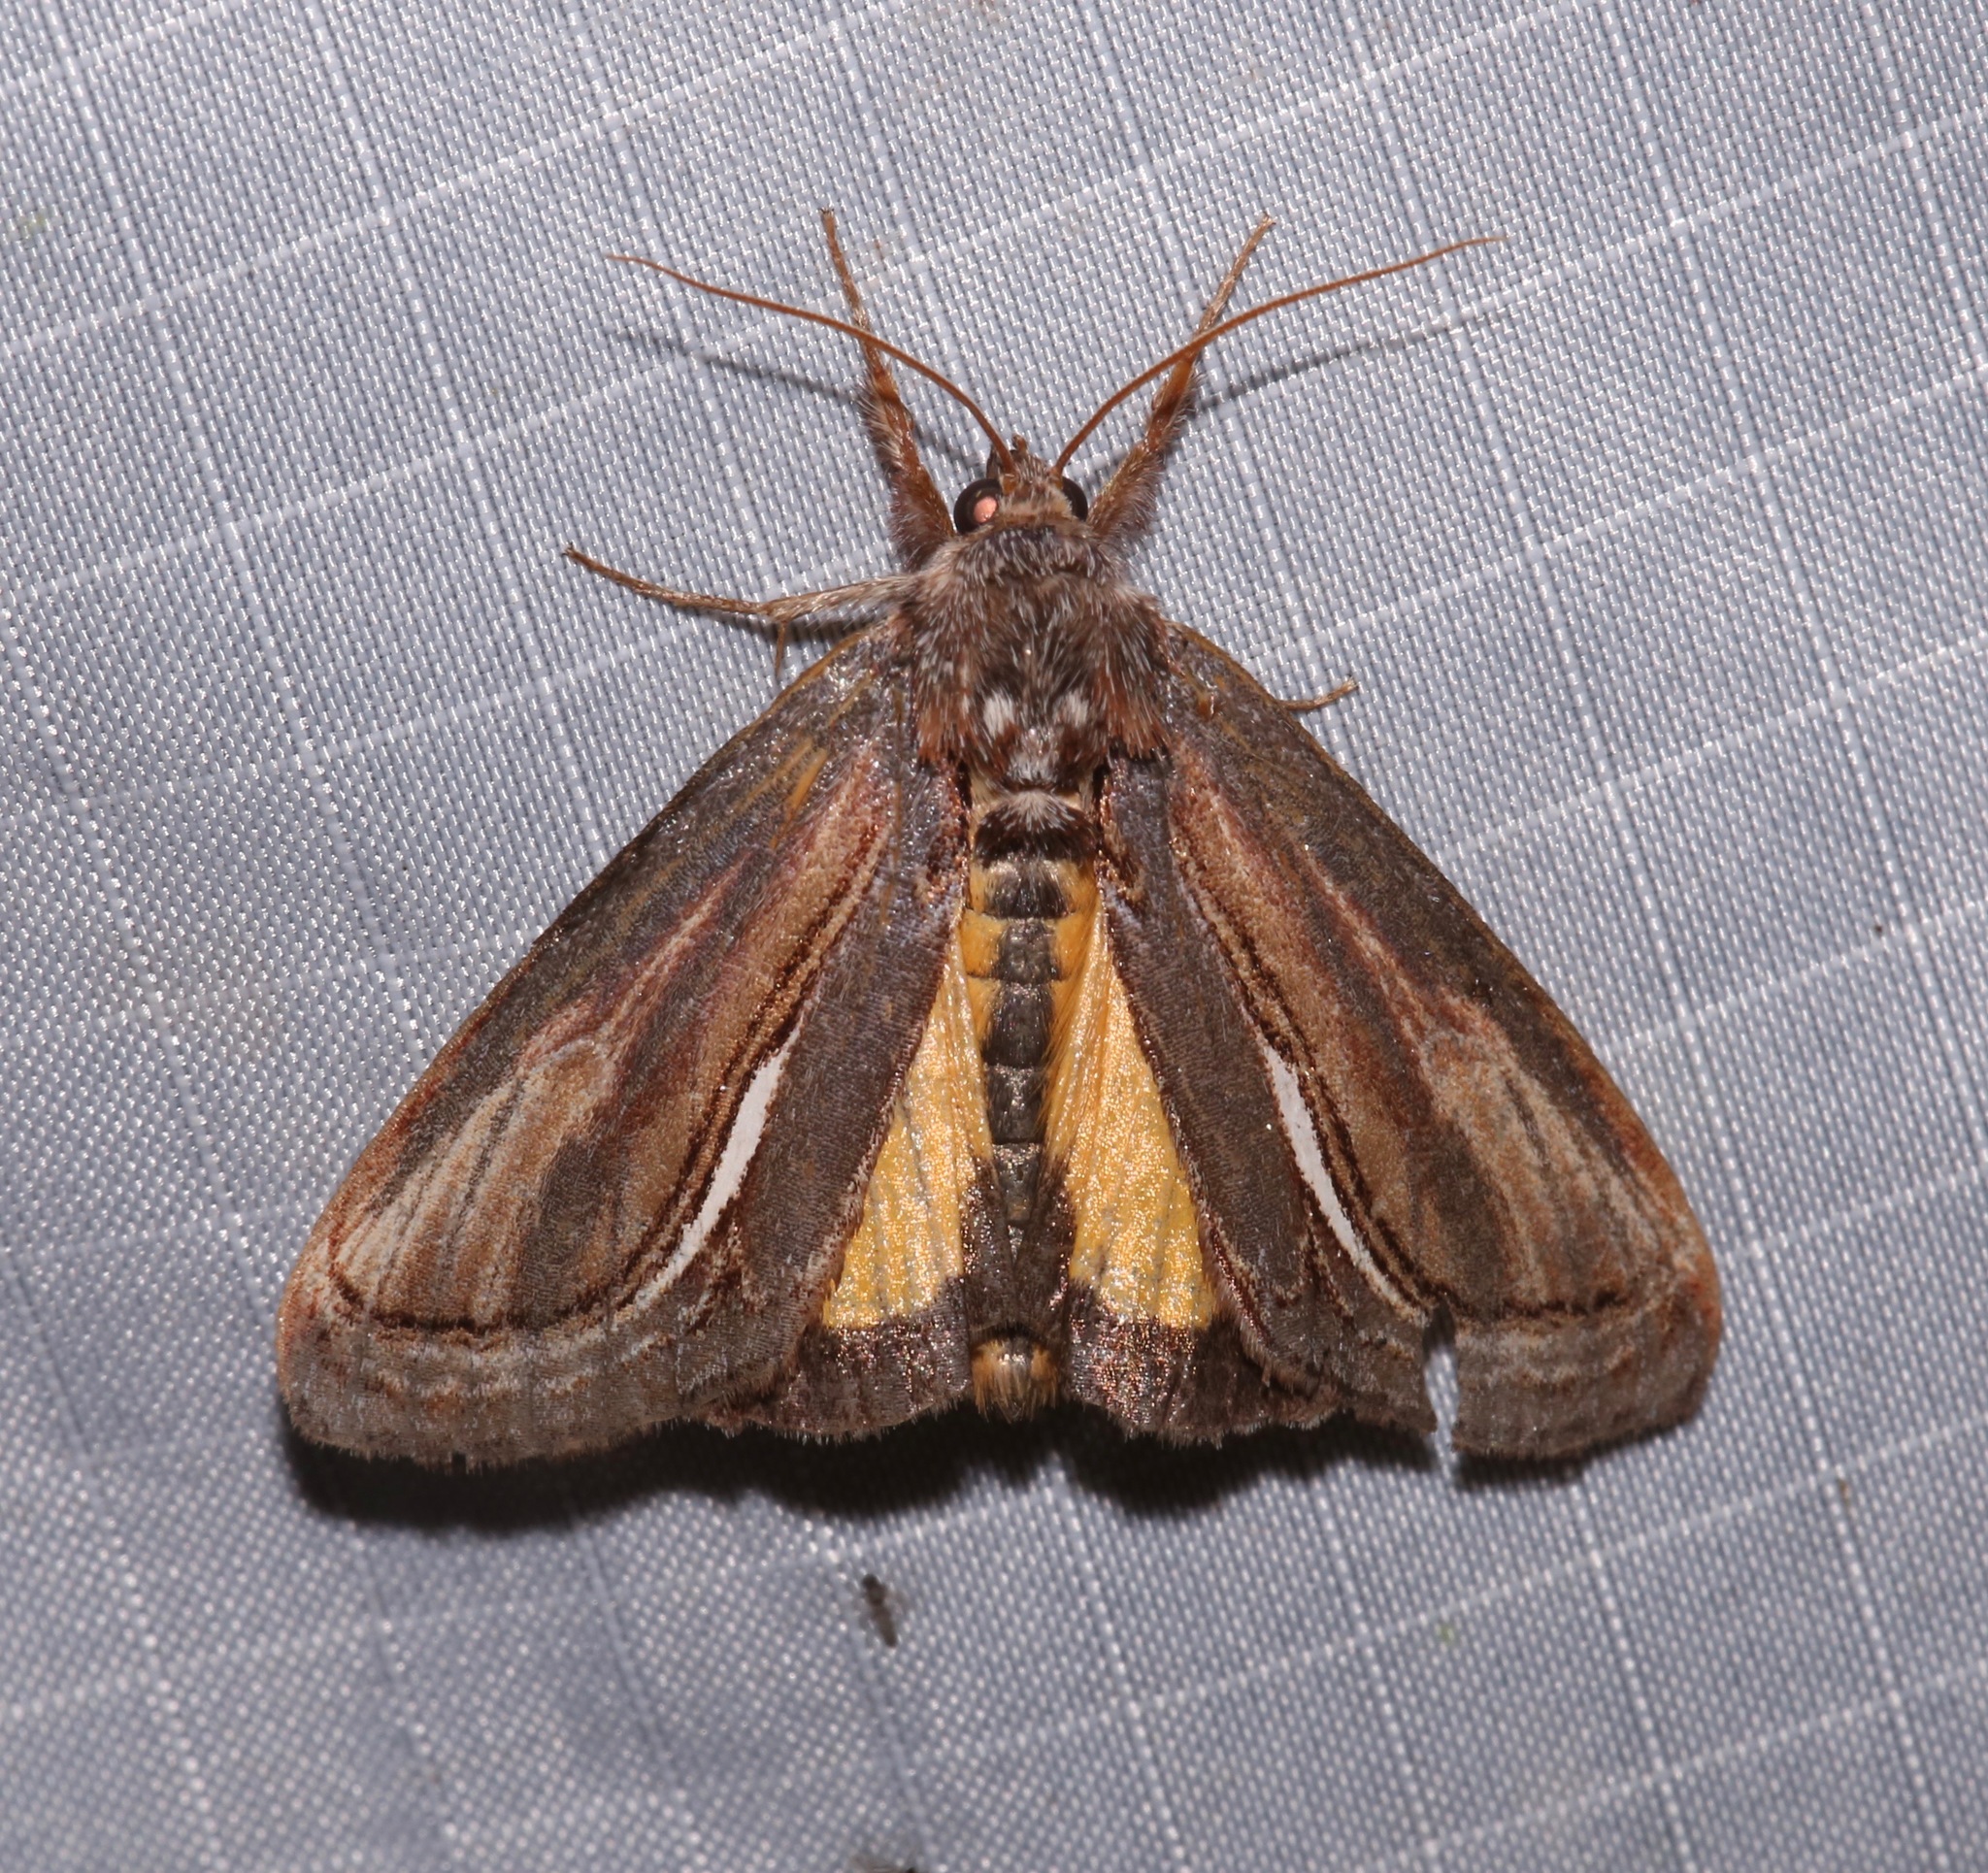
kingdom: Animalia
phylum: Arthropoda
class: Insecta
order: Lepidoptera
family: Noctuidae
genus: Gerrodes
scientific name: Gerrodes minatea
